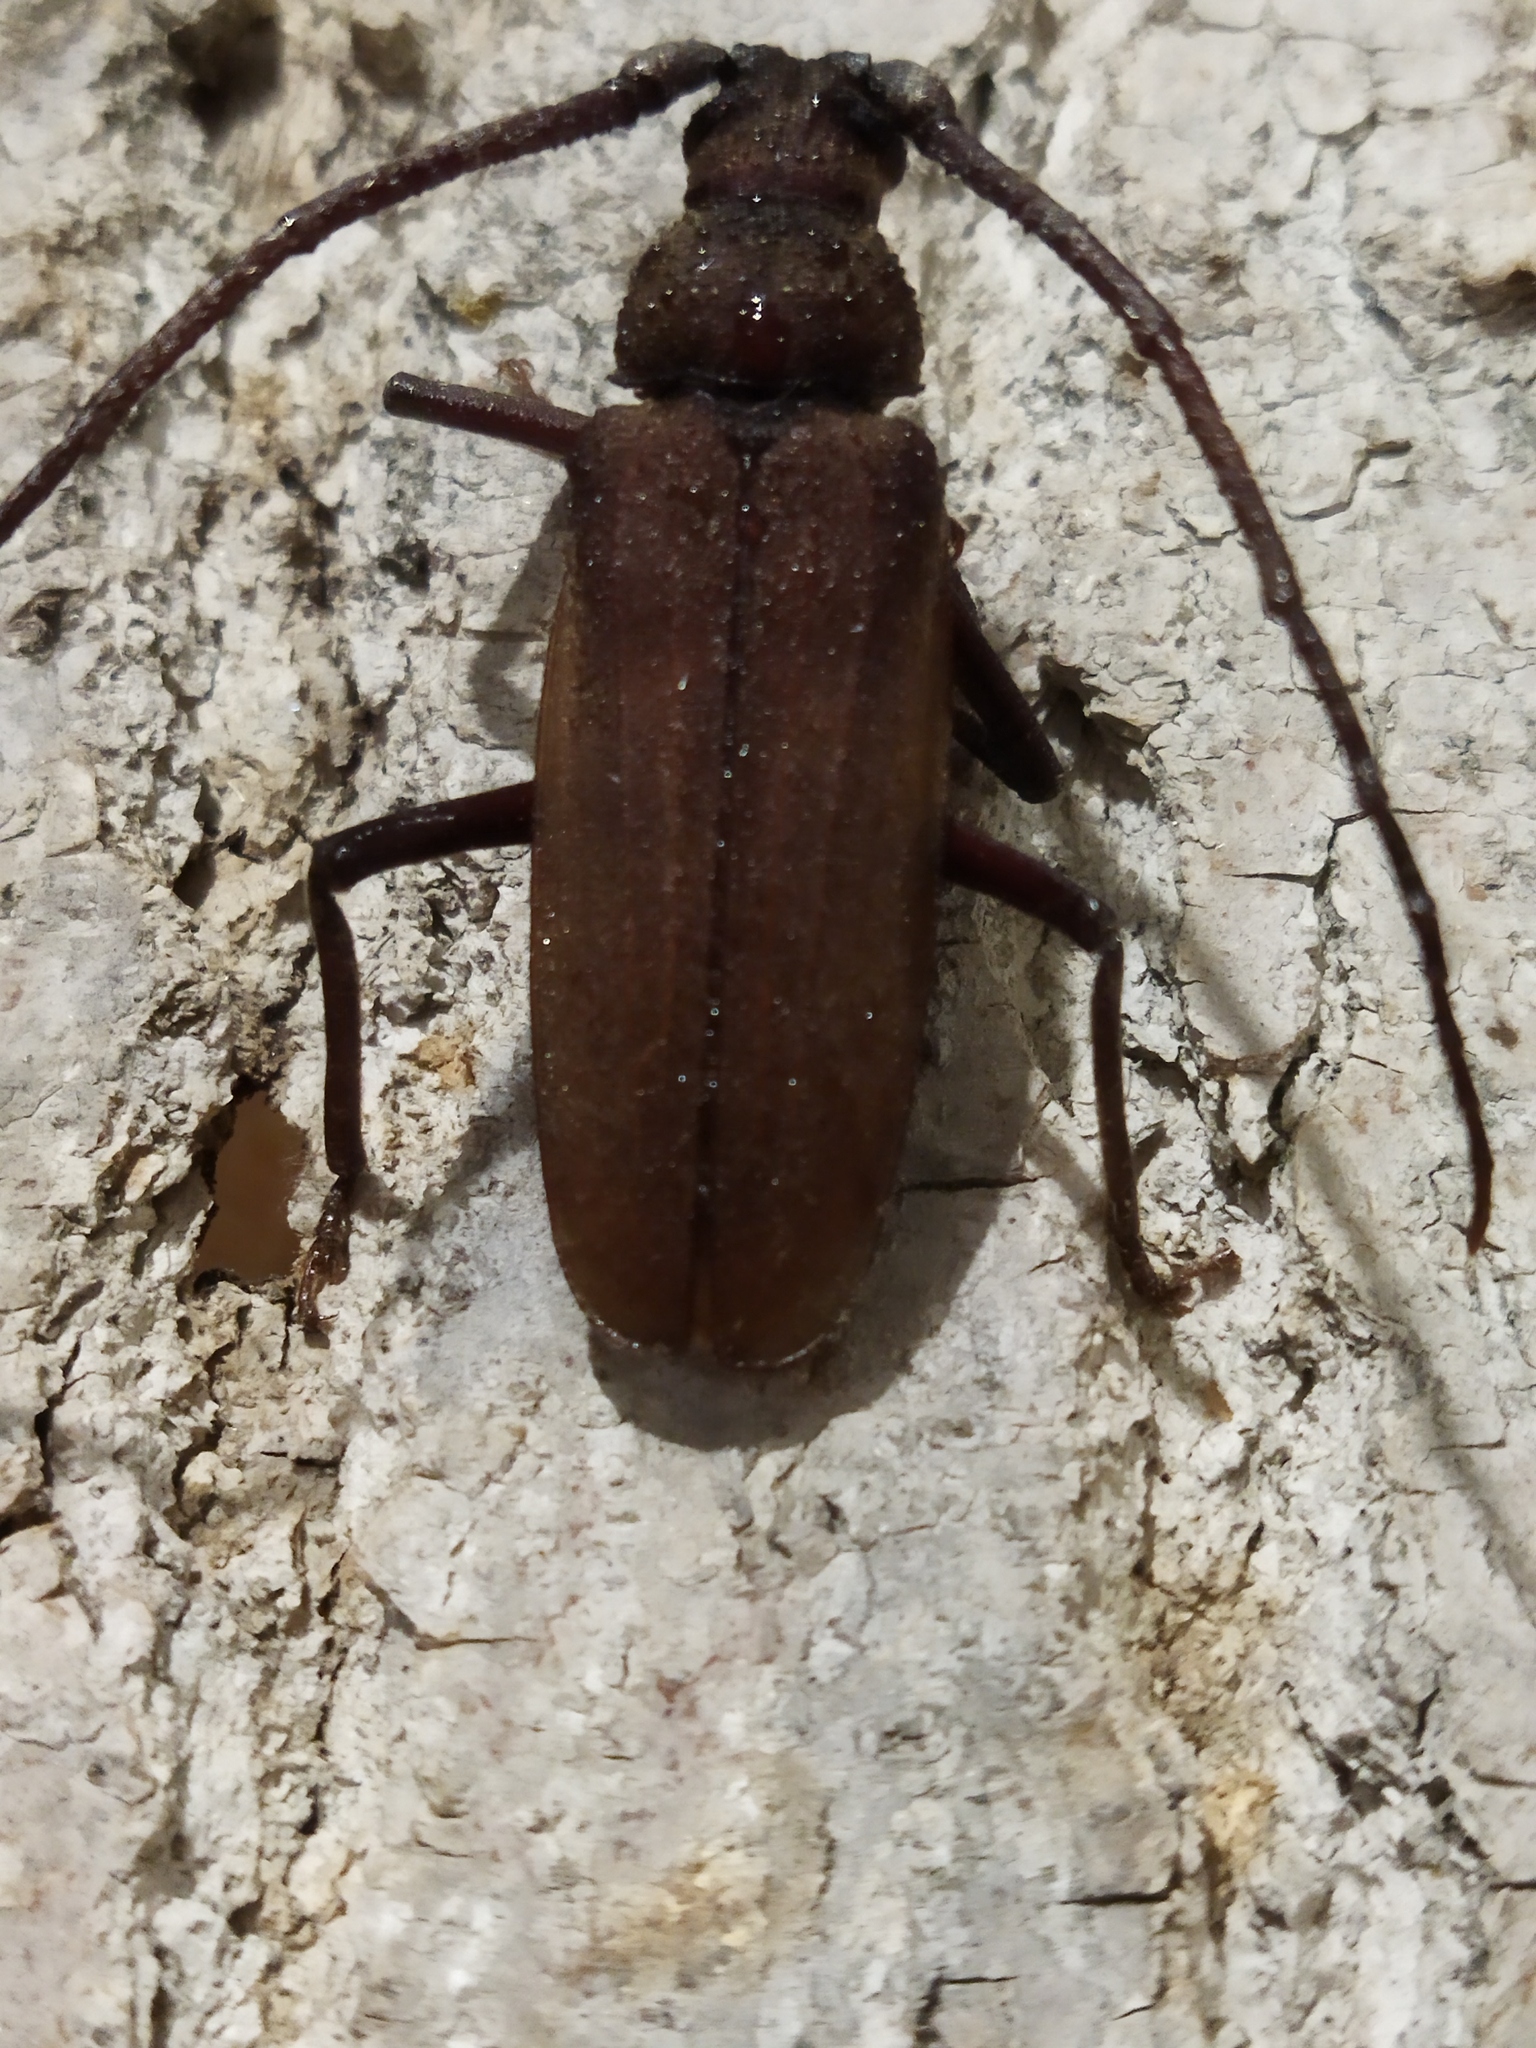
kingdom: Animalia
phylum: Arthropoda
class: Insecta
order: Coleoptera
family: Cerambycidae
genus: Aegosoma
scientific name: Aegosoma scabricorne
